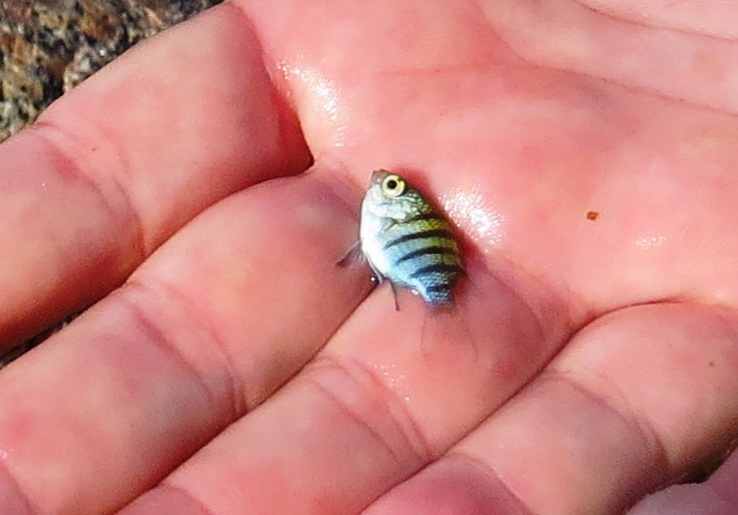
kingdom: Animalia
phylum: Chordata
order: Perciformes
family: Pomacentridae
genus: Abudefduf
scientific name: Abudefduf saxatilis
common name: Sergeant major
